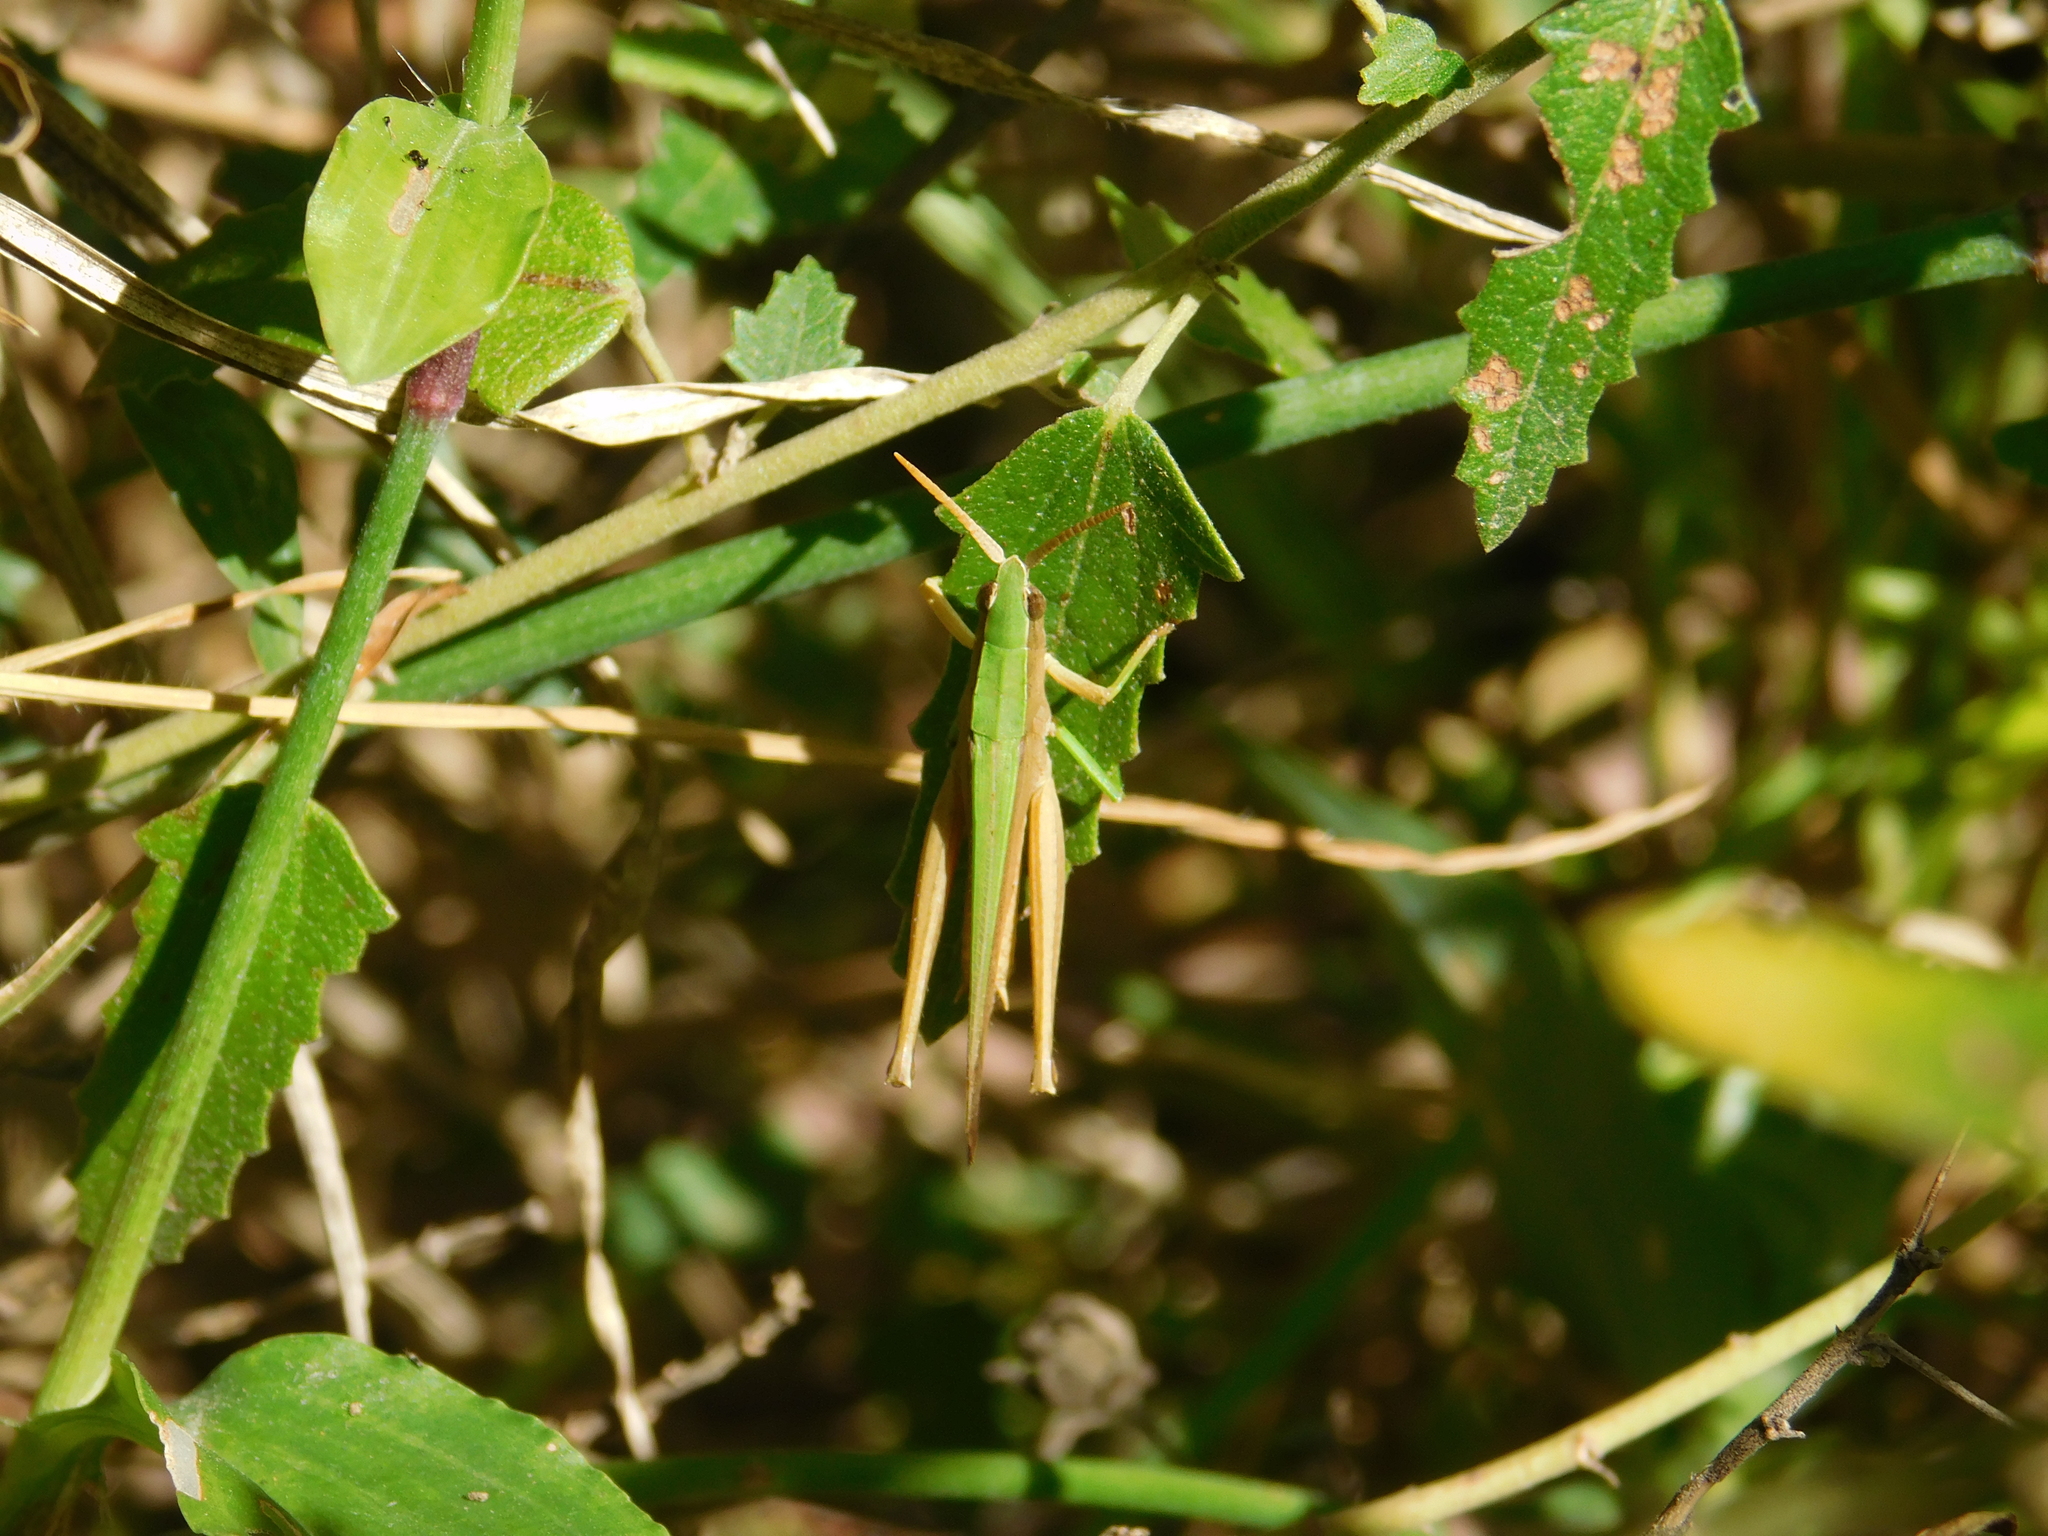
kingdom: Animalia
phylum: Arthropoda
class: Insecta
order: Orthoptera
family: Acrididae
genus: Metaleptea
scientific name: Metaleptea adspersa
